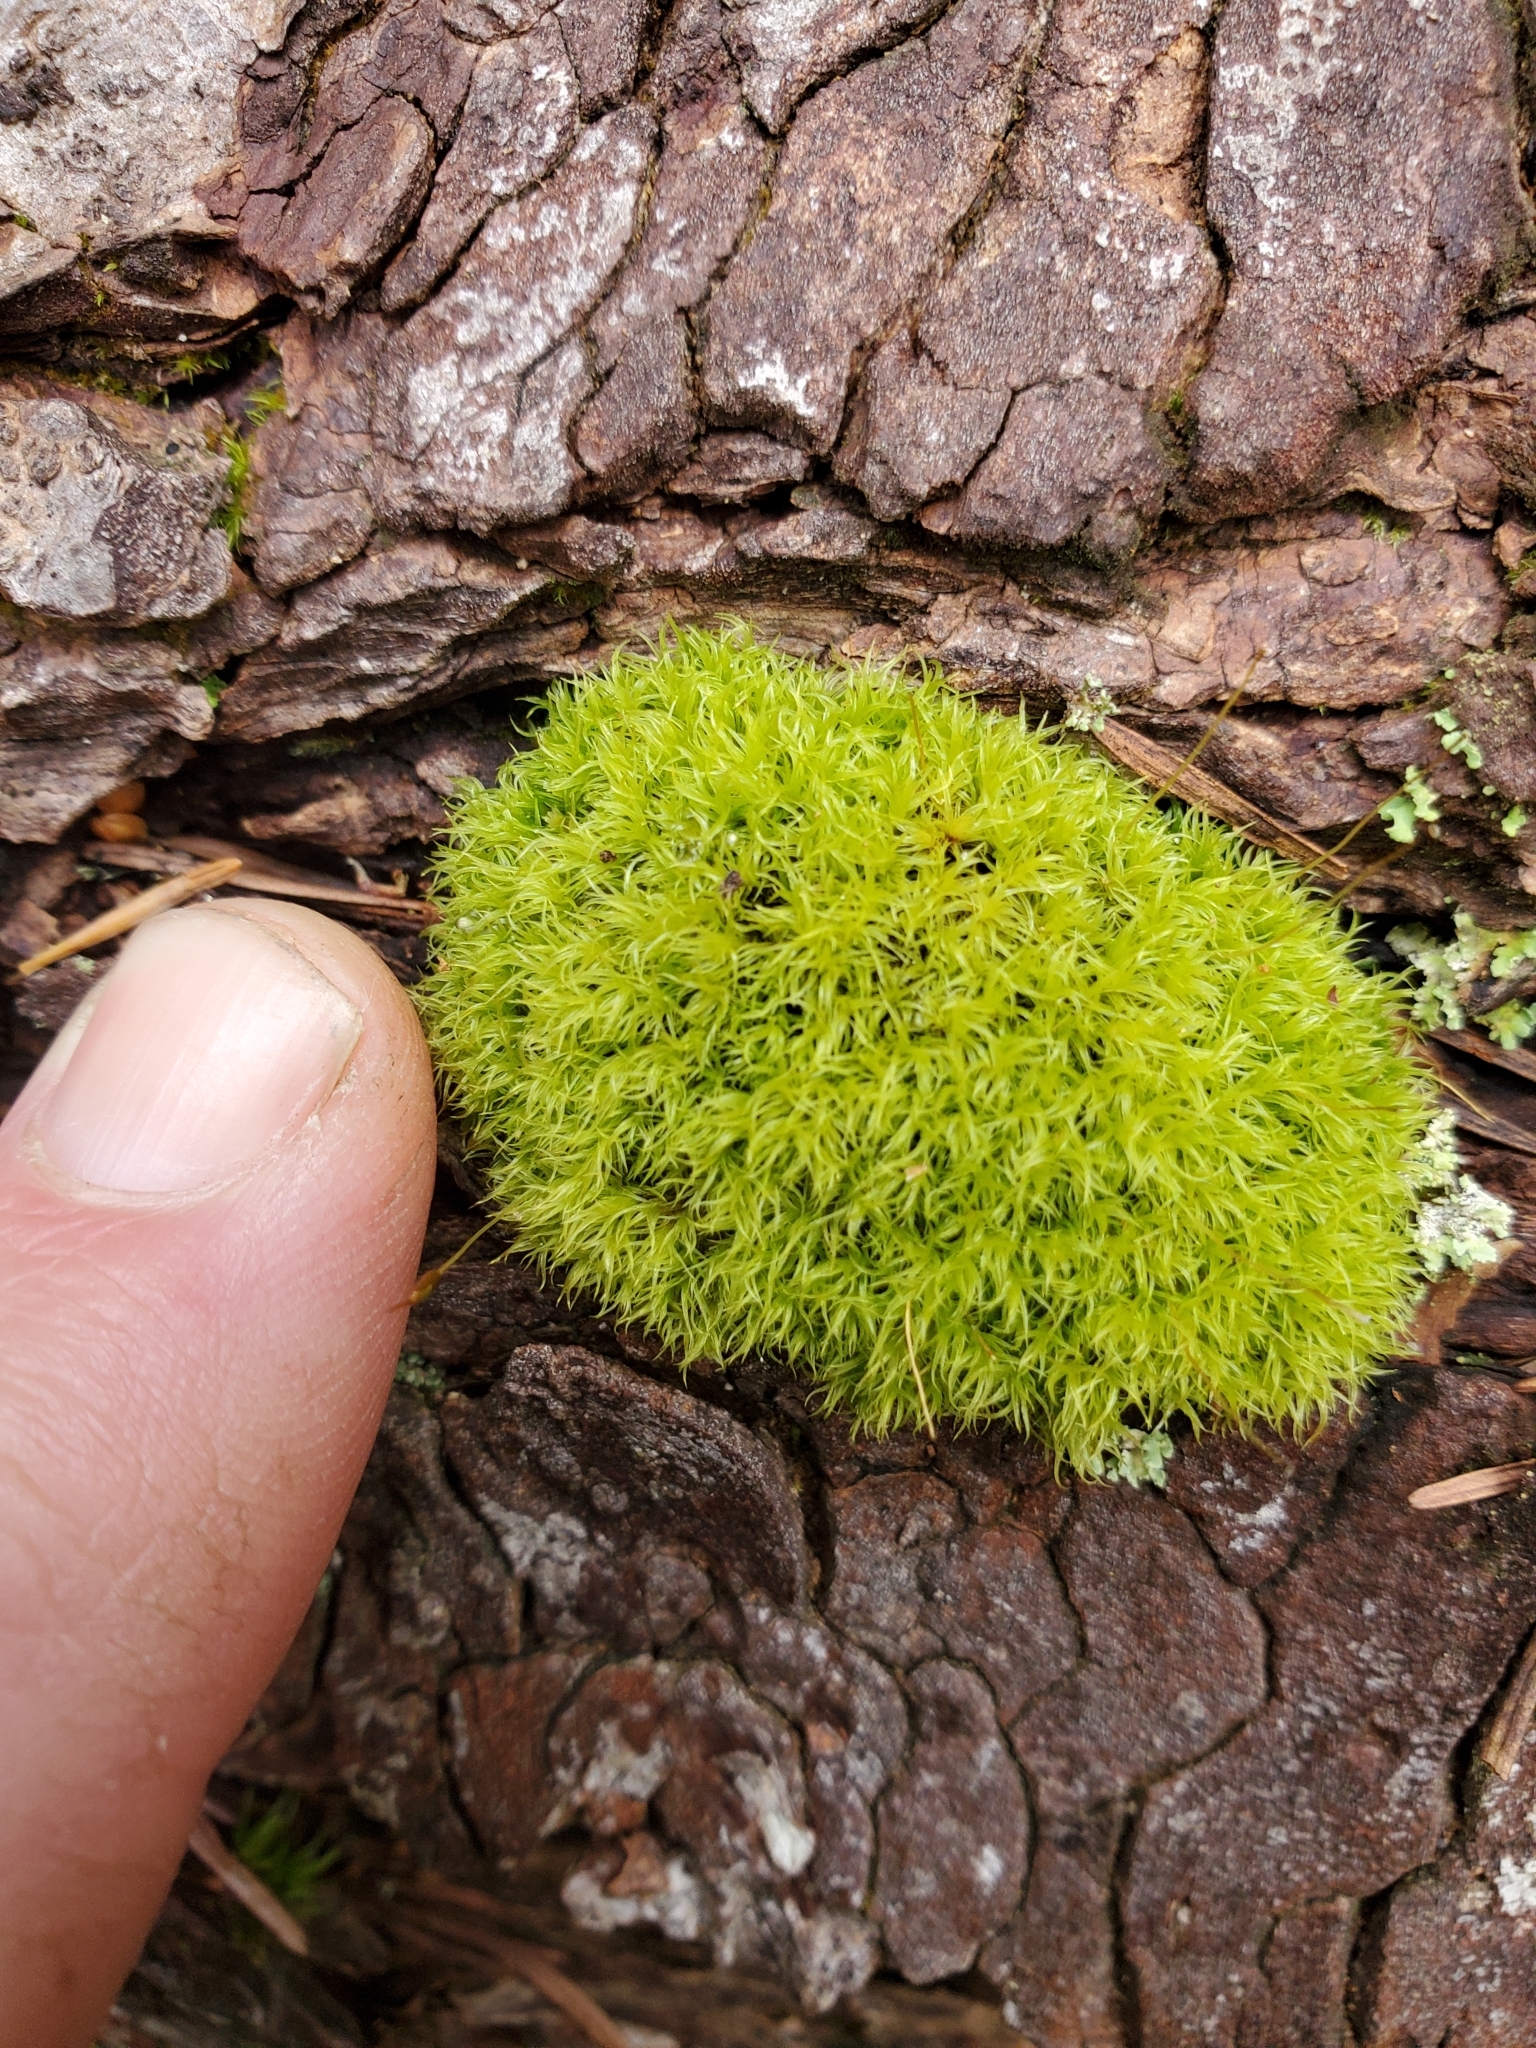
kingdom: Plantae
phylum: Bryophyta
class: Bryopsida
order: Dicranales
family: Rhabdoweisiaceae
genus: Dicranoweisia
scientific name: Dicranoweisia cirrata
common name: Common pincushion
